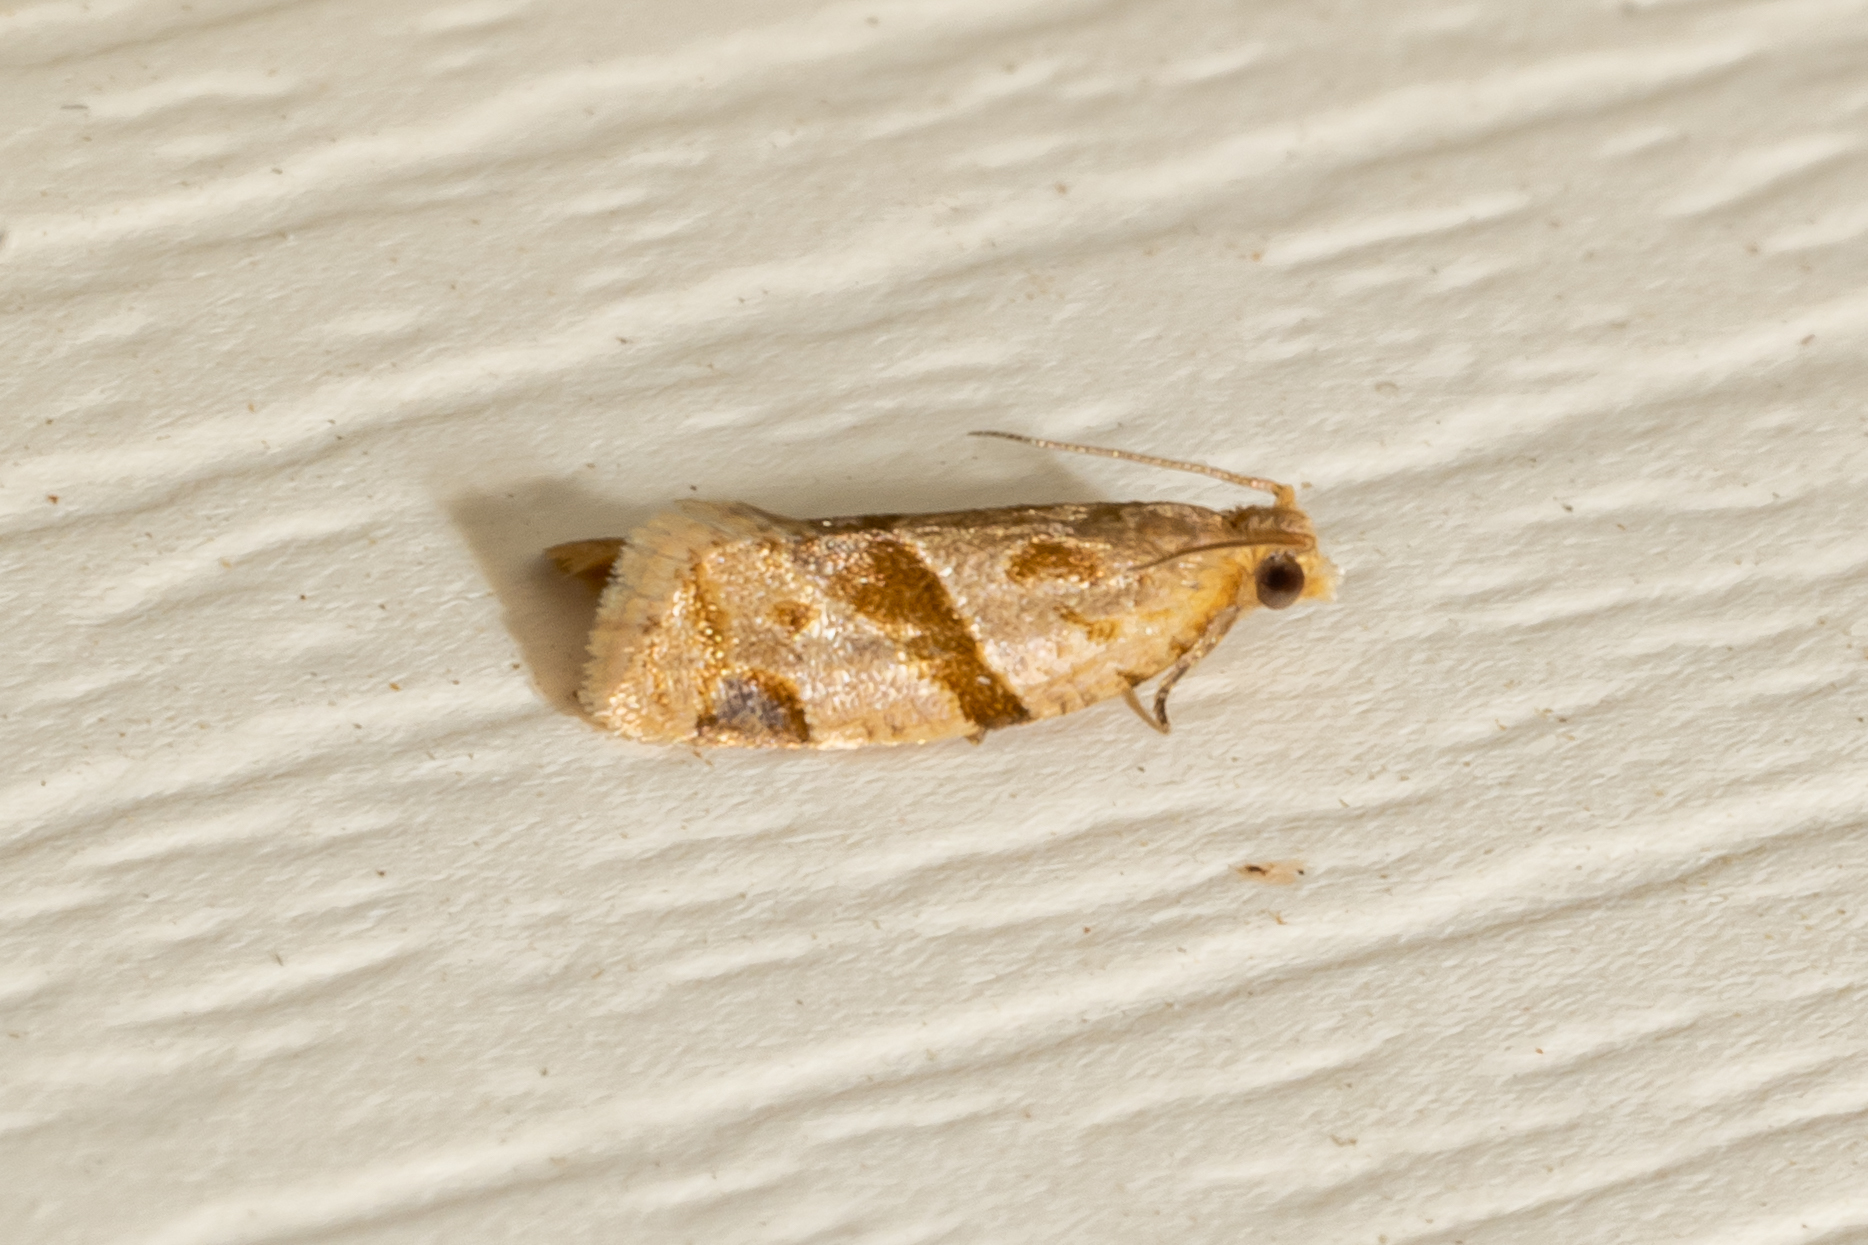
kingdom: Animalia
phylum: Arthropoda
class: Insecta
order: Lepidoptera
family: Tortricidae
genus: Clepsis
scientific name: Clepsis peritana
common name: Garden tortrix
